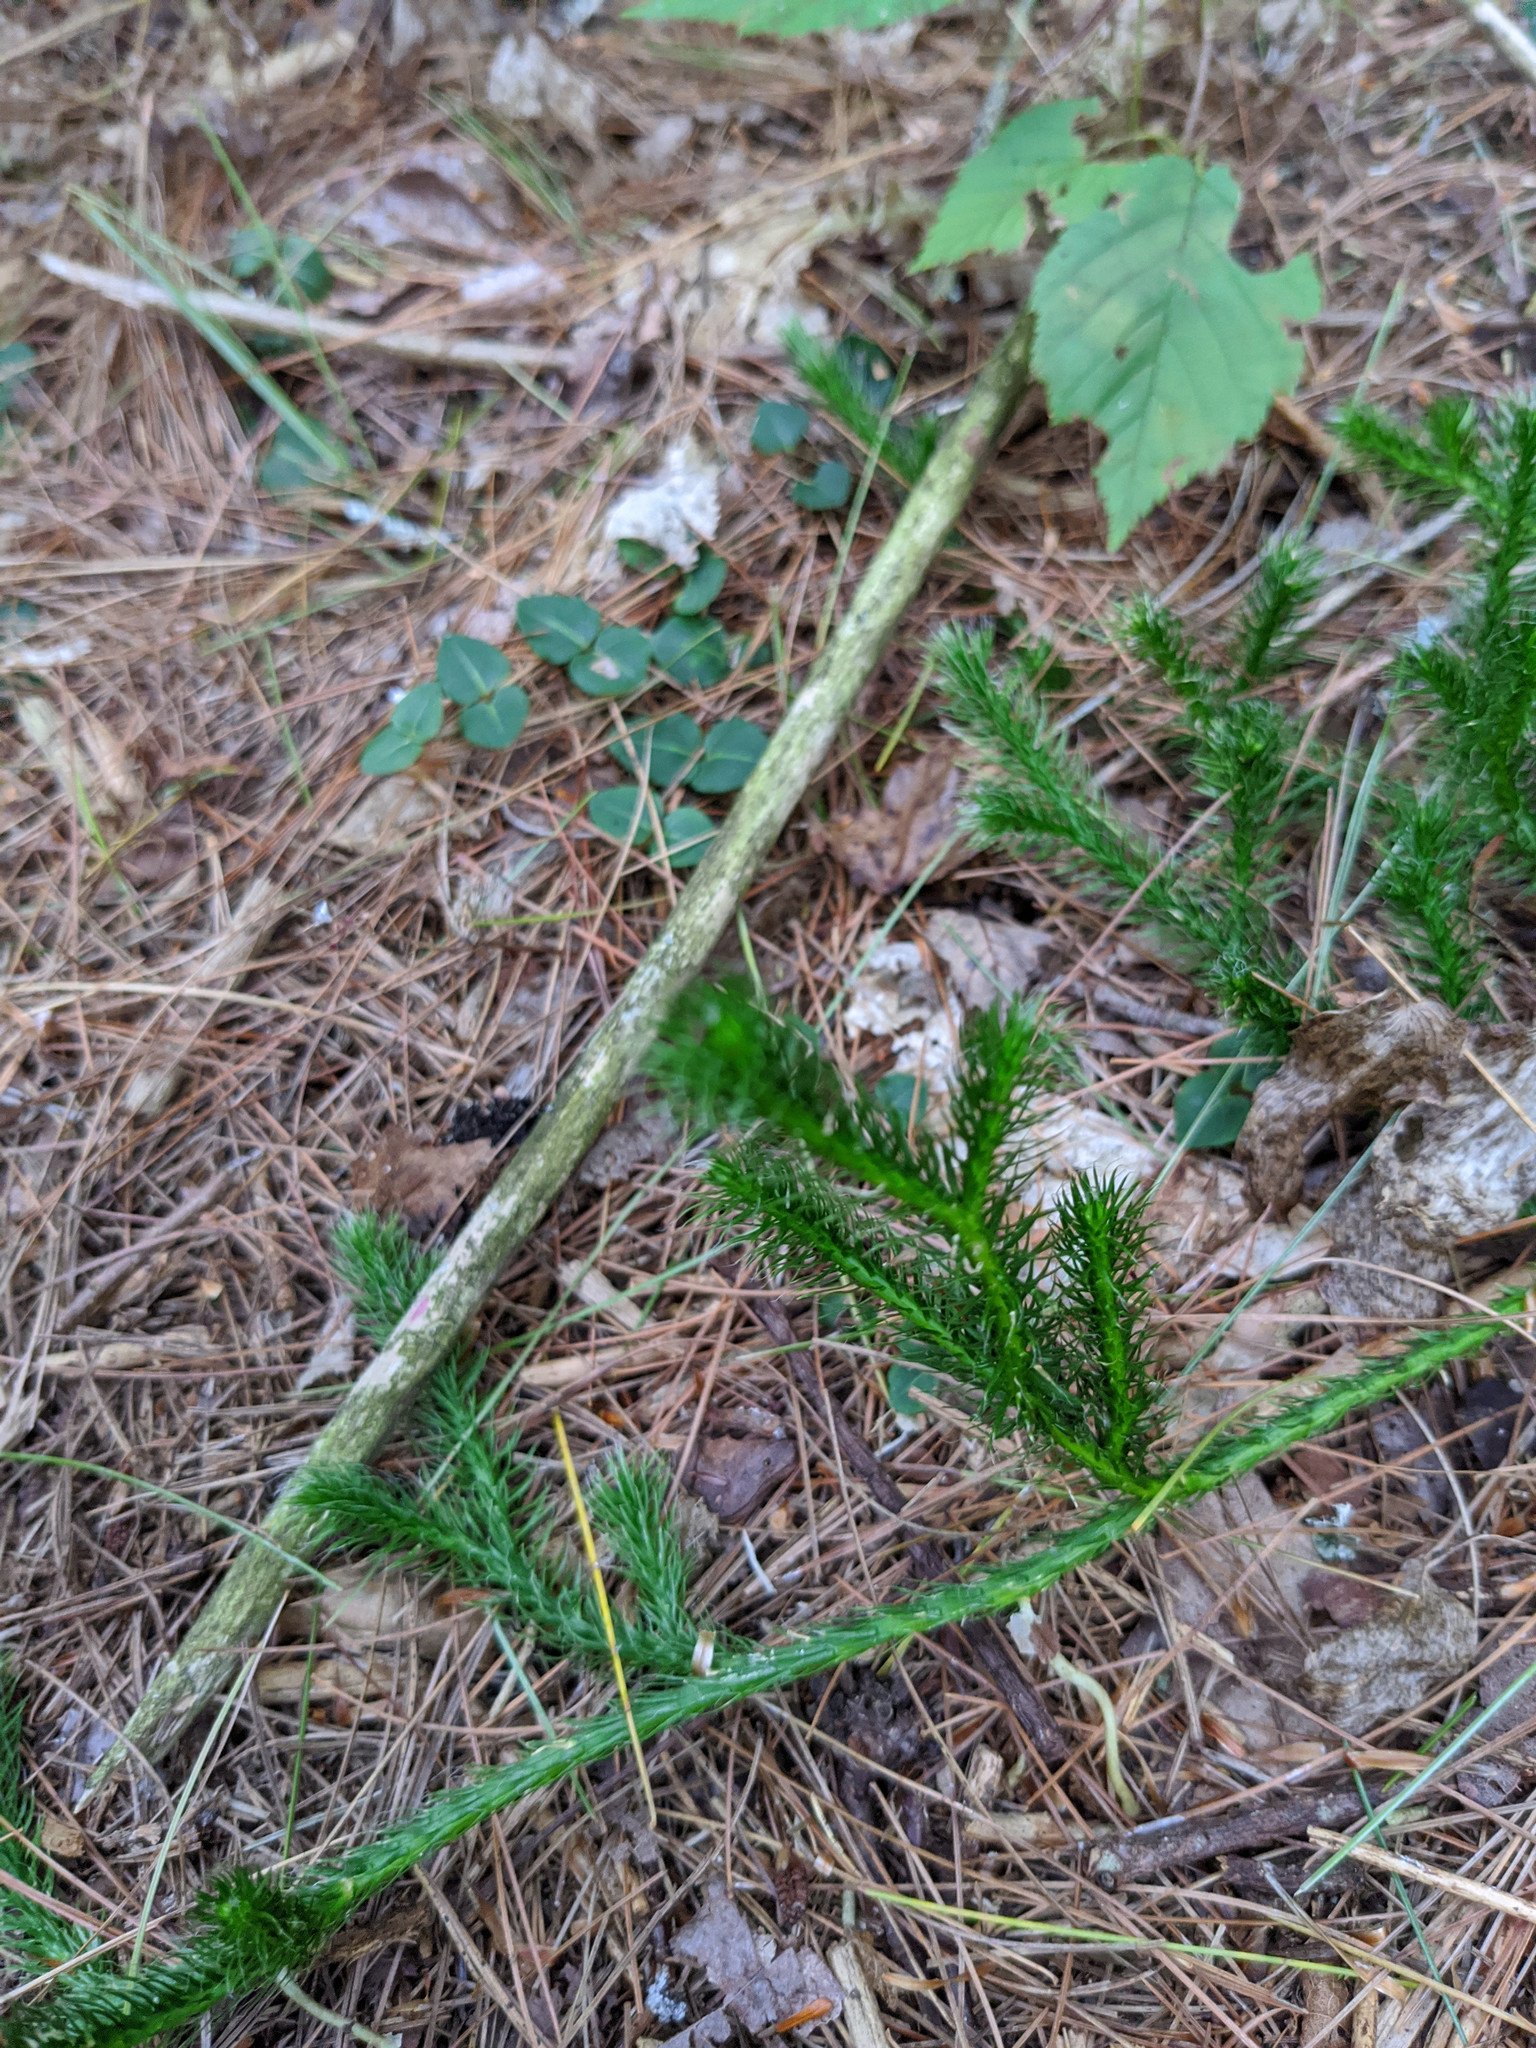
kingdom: Plantae
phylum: Tracheophyta
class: Lycopodiopsida
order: Lycopodiales
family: Lycopodiaceae
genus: Lycopodium
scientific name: Lycopodium clavatum
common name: Stag's-horn clubmoss
